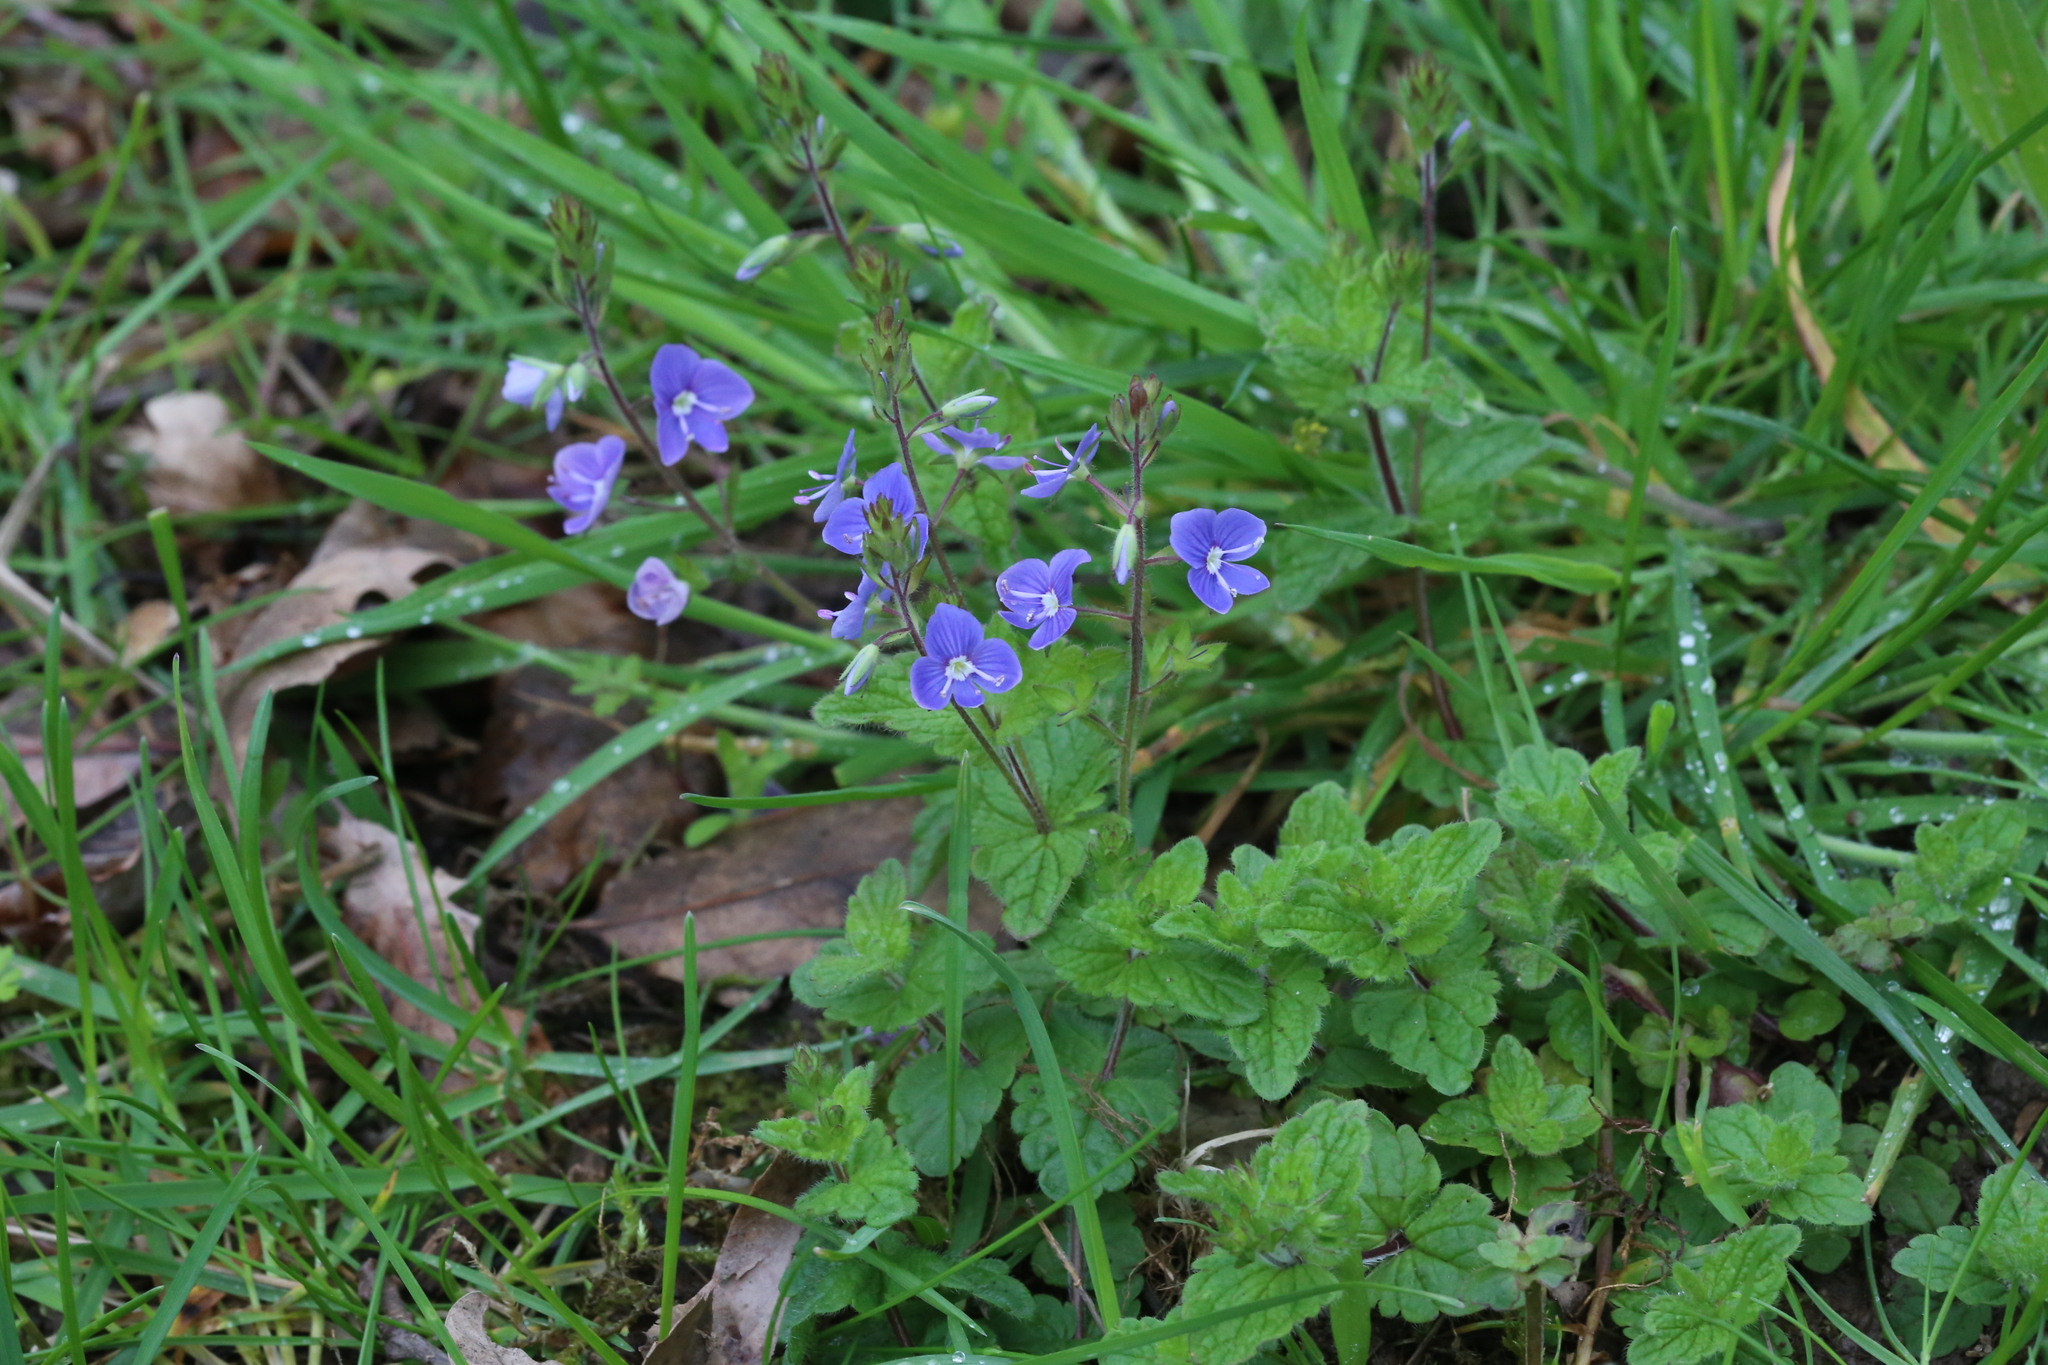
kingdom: Plantae
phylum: Tracheophyta
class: Magnoliopsida
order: Lamiales
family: Plantaginaceae
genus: Veronica
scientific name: Veronica chamaedrys
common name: Germander speedwell
